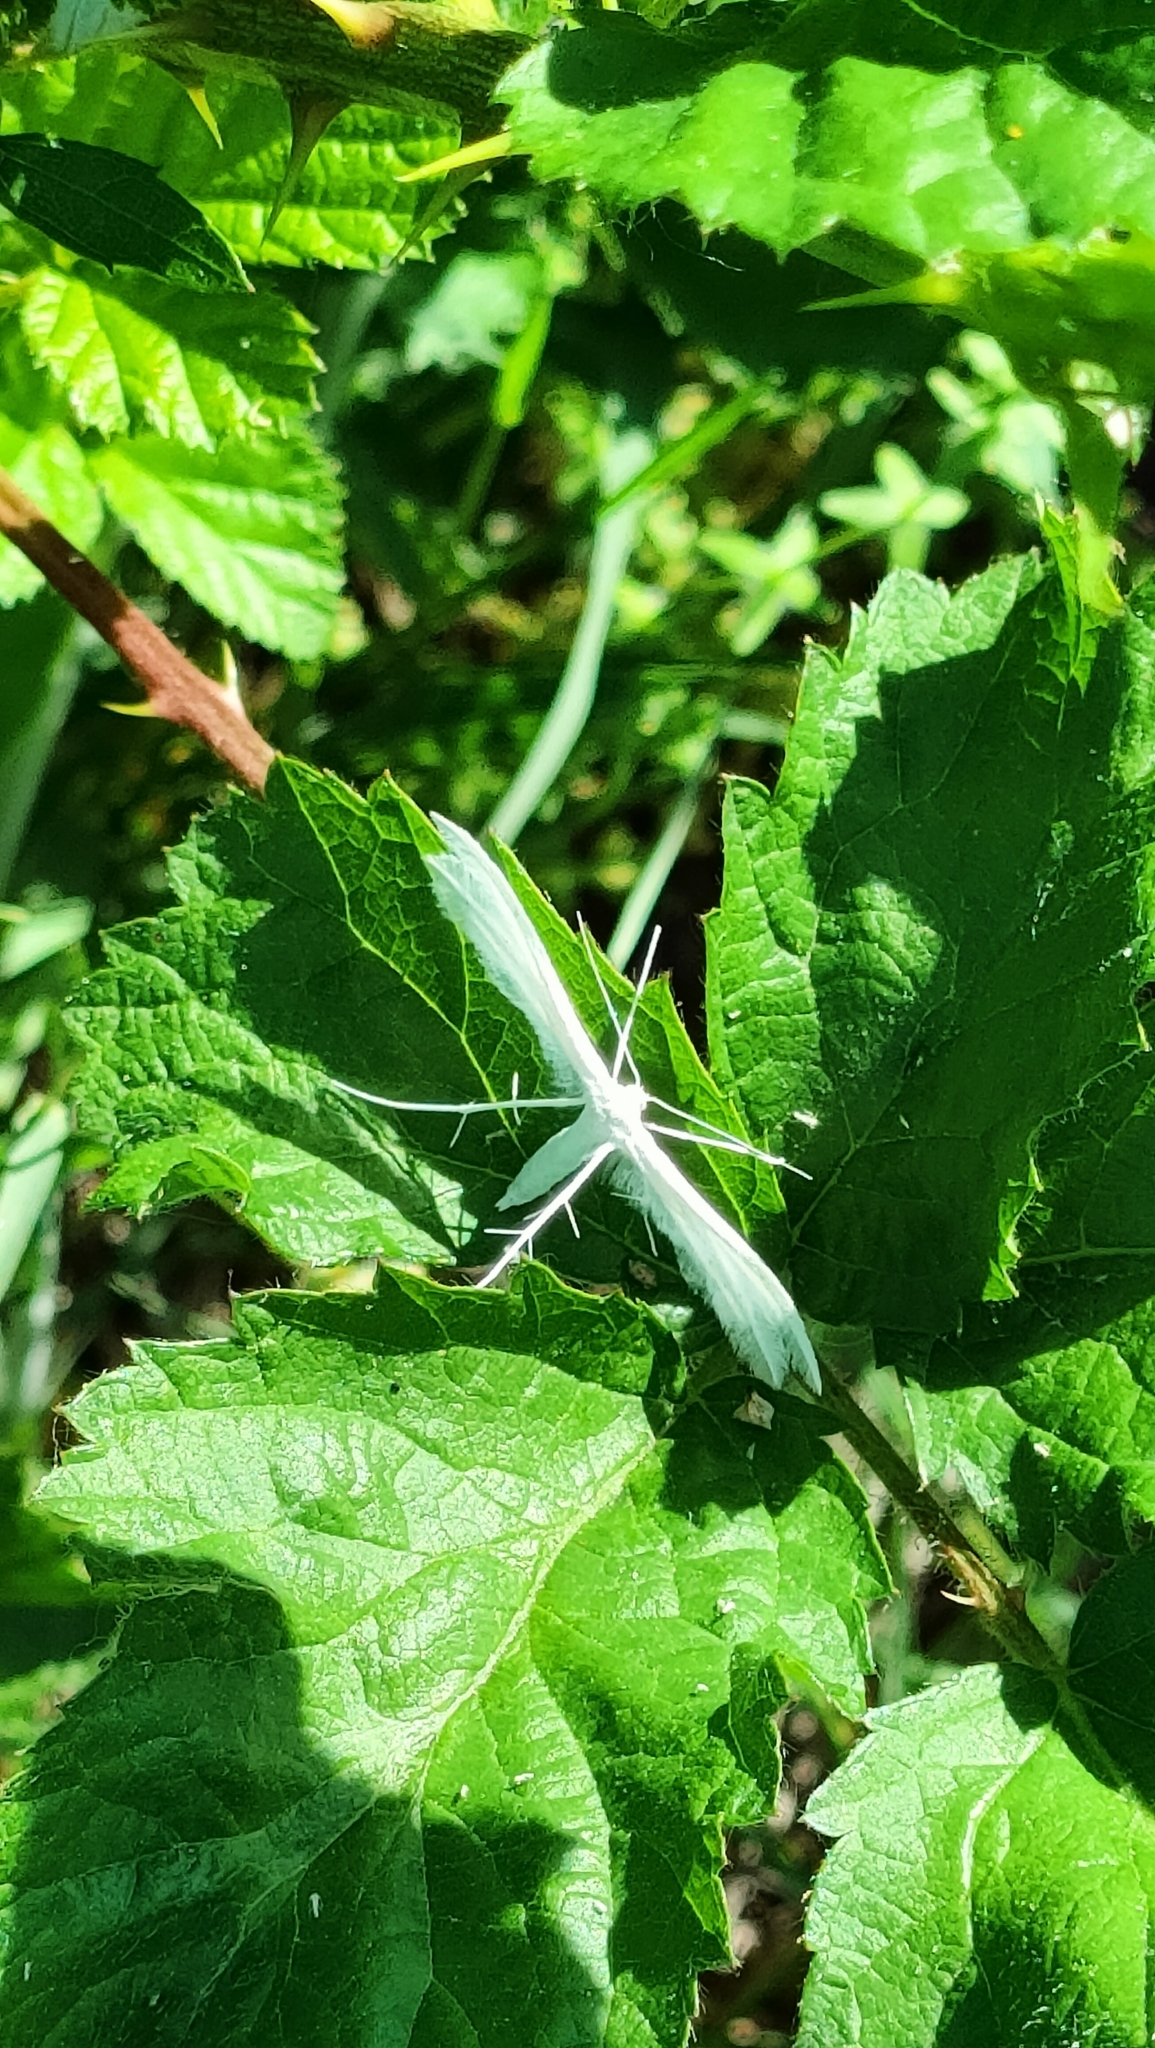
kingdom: Animalia
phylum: Arthropoda
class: Insecta
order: Lepidoptera
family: Pterophoridae
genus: Pterophorus
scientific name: Pterophorus pentadactyla
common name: White plume moth
